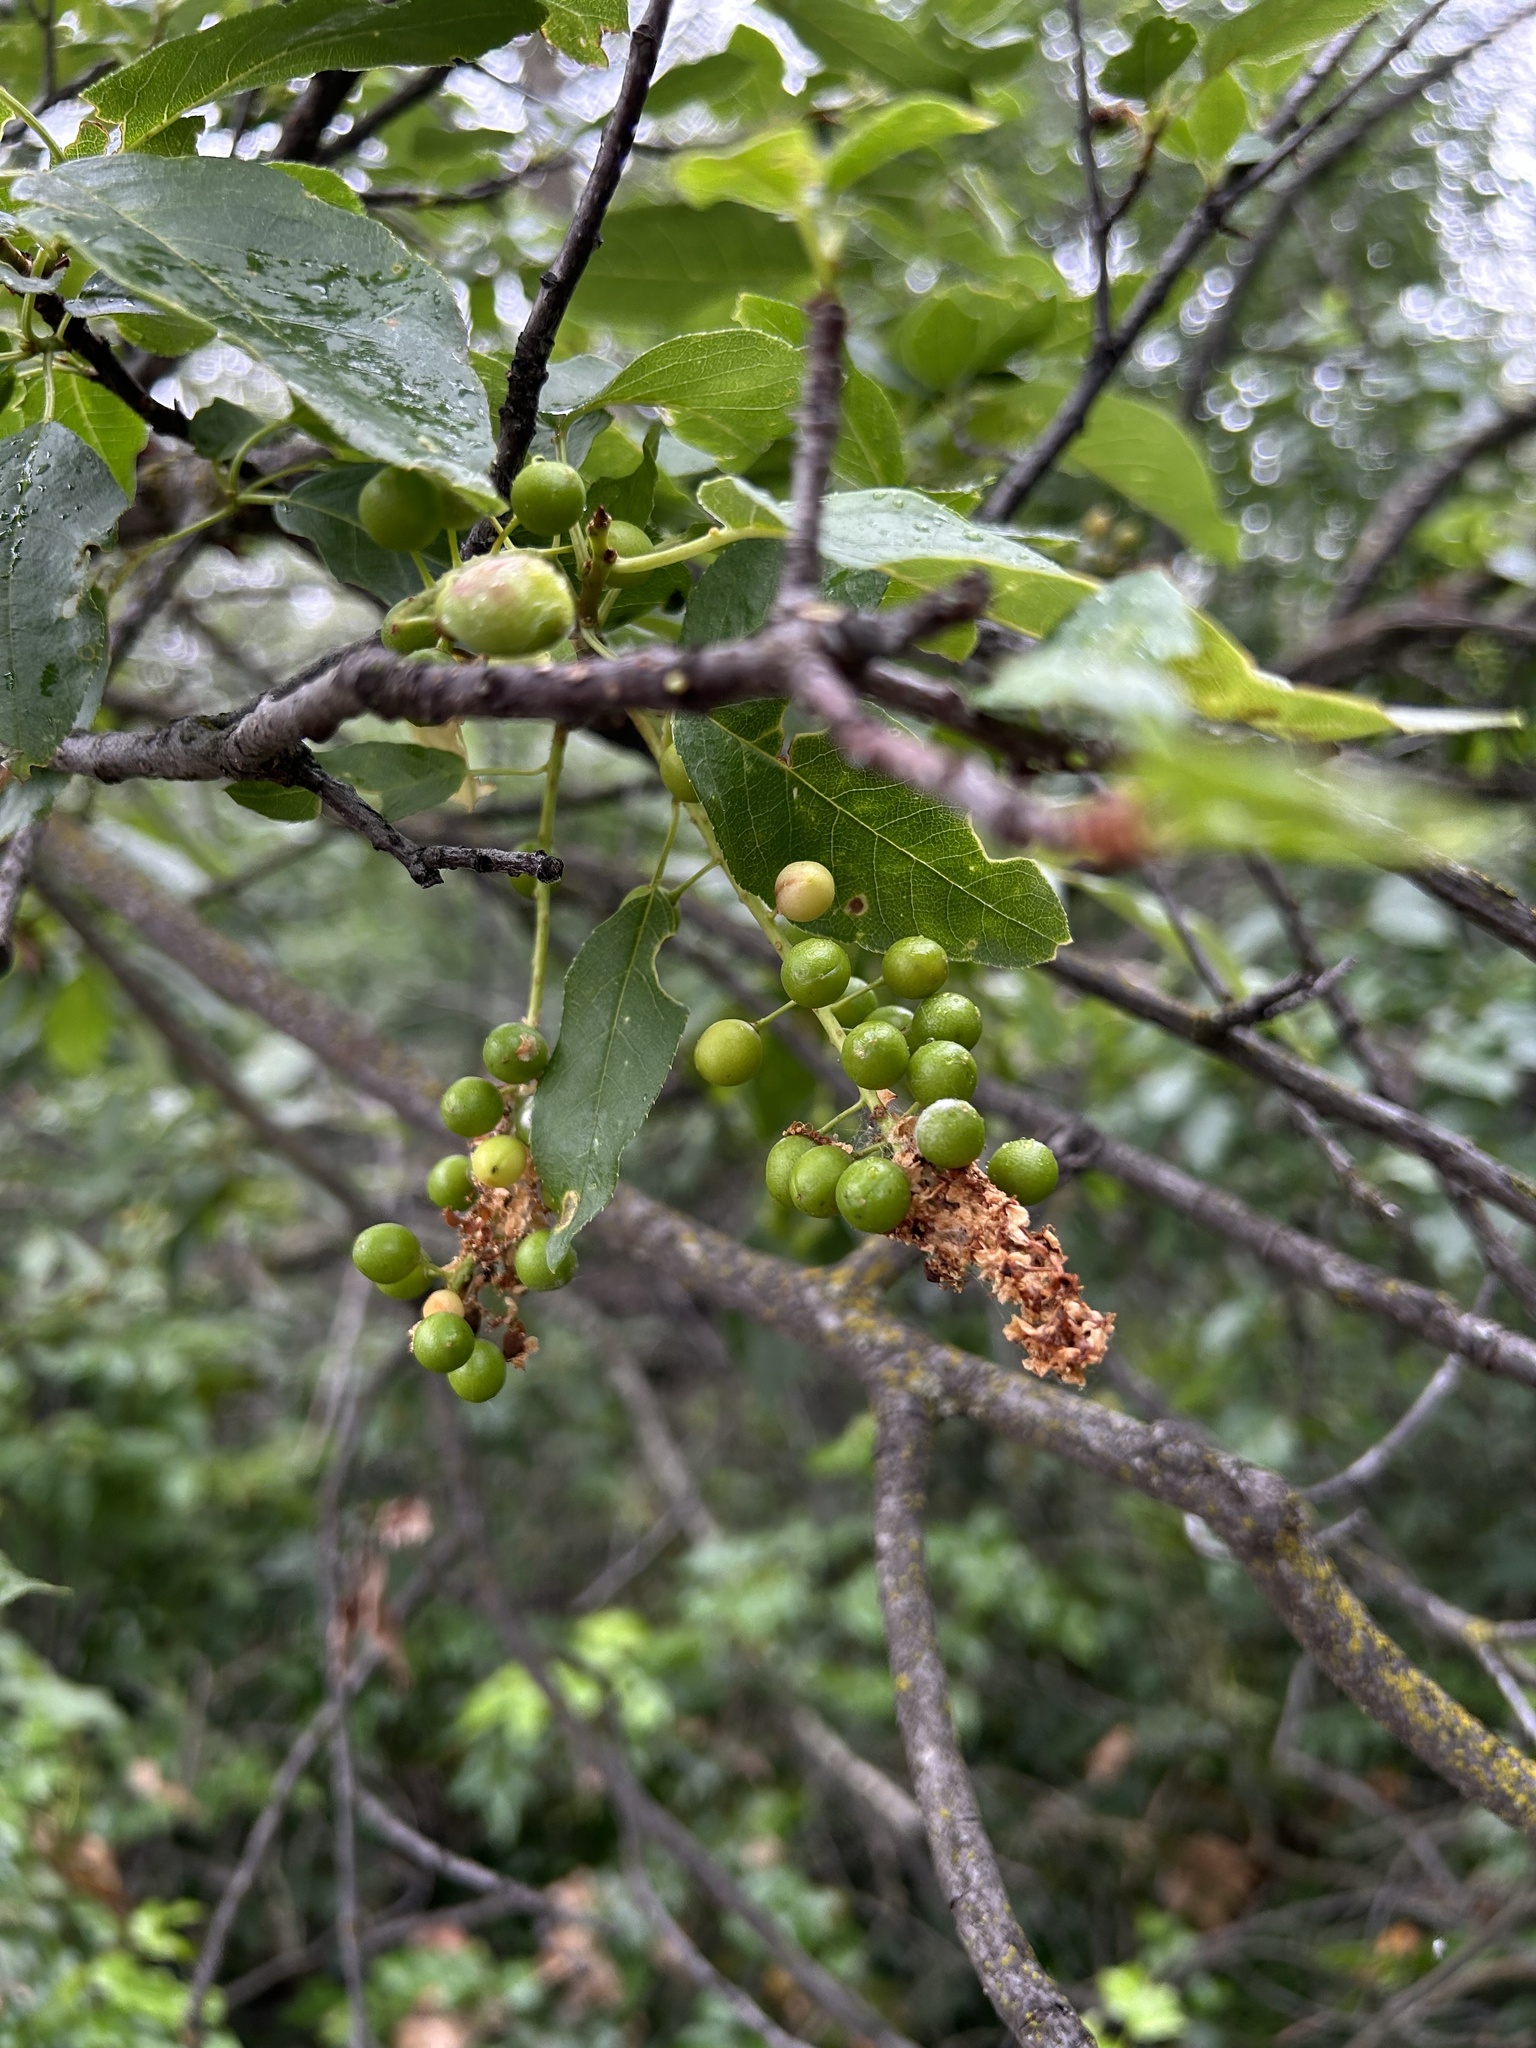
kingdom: Plantae
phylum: Tracheophyta
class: Magnoliopsida
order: Rosales
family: Rosaceae
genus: Prunus
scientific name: Prunus virginiana
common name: Chokecherry
